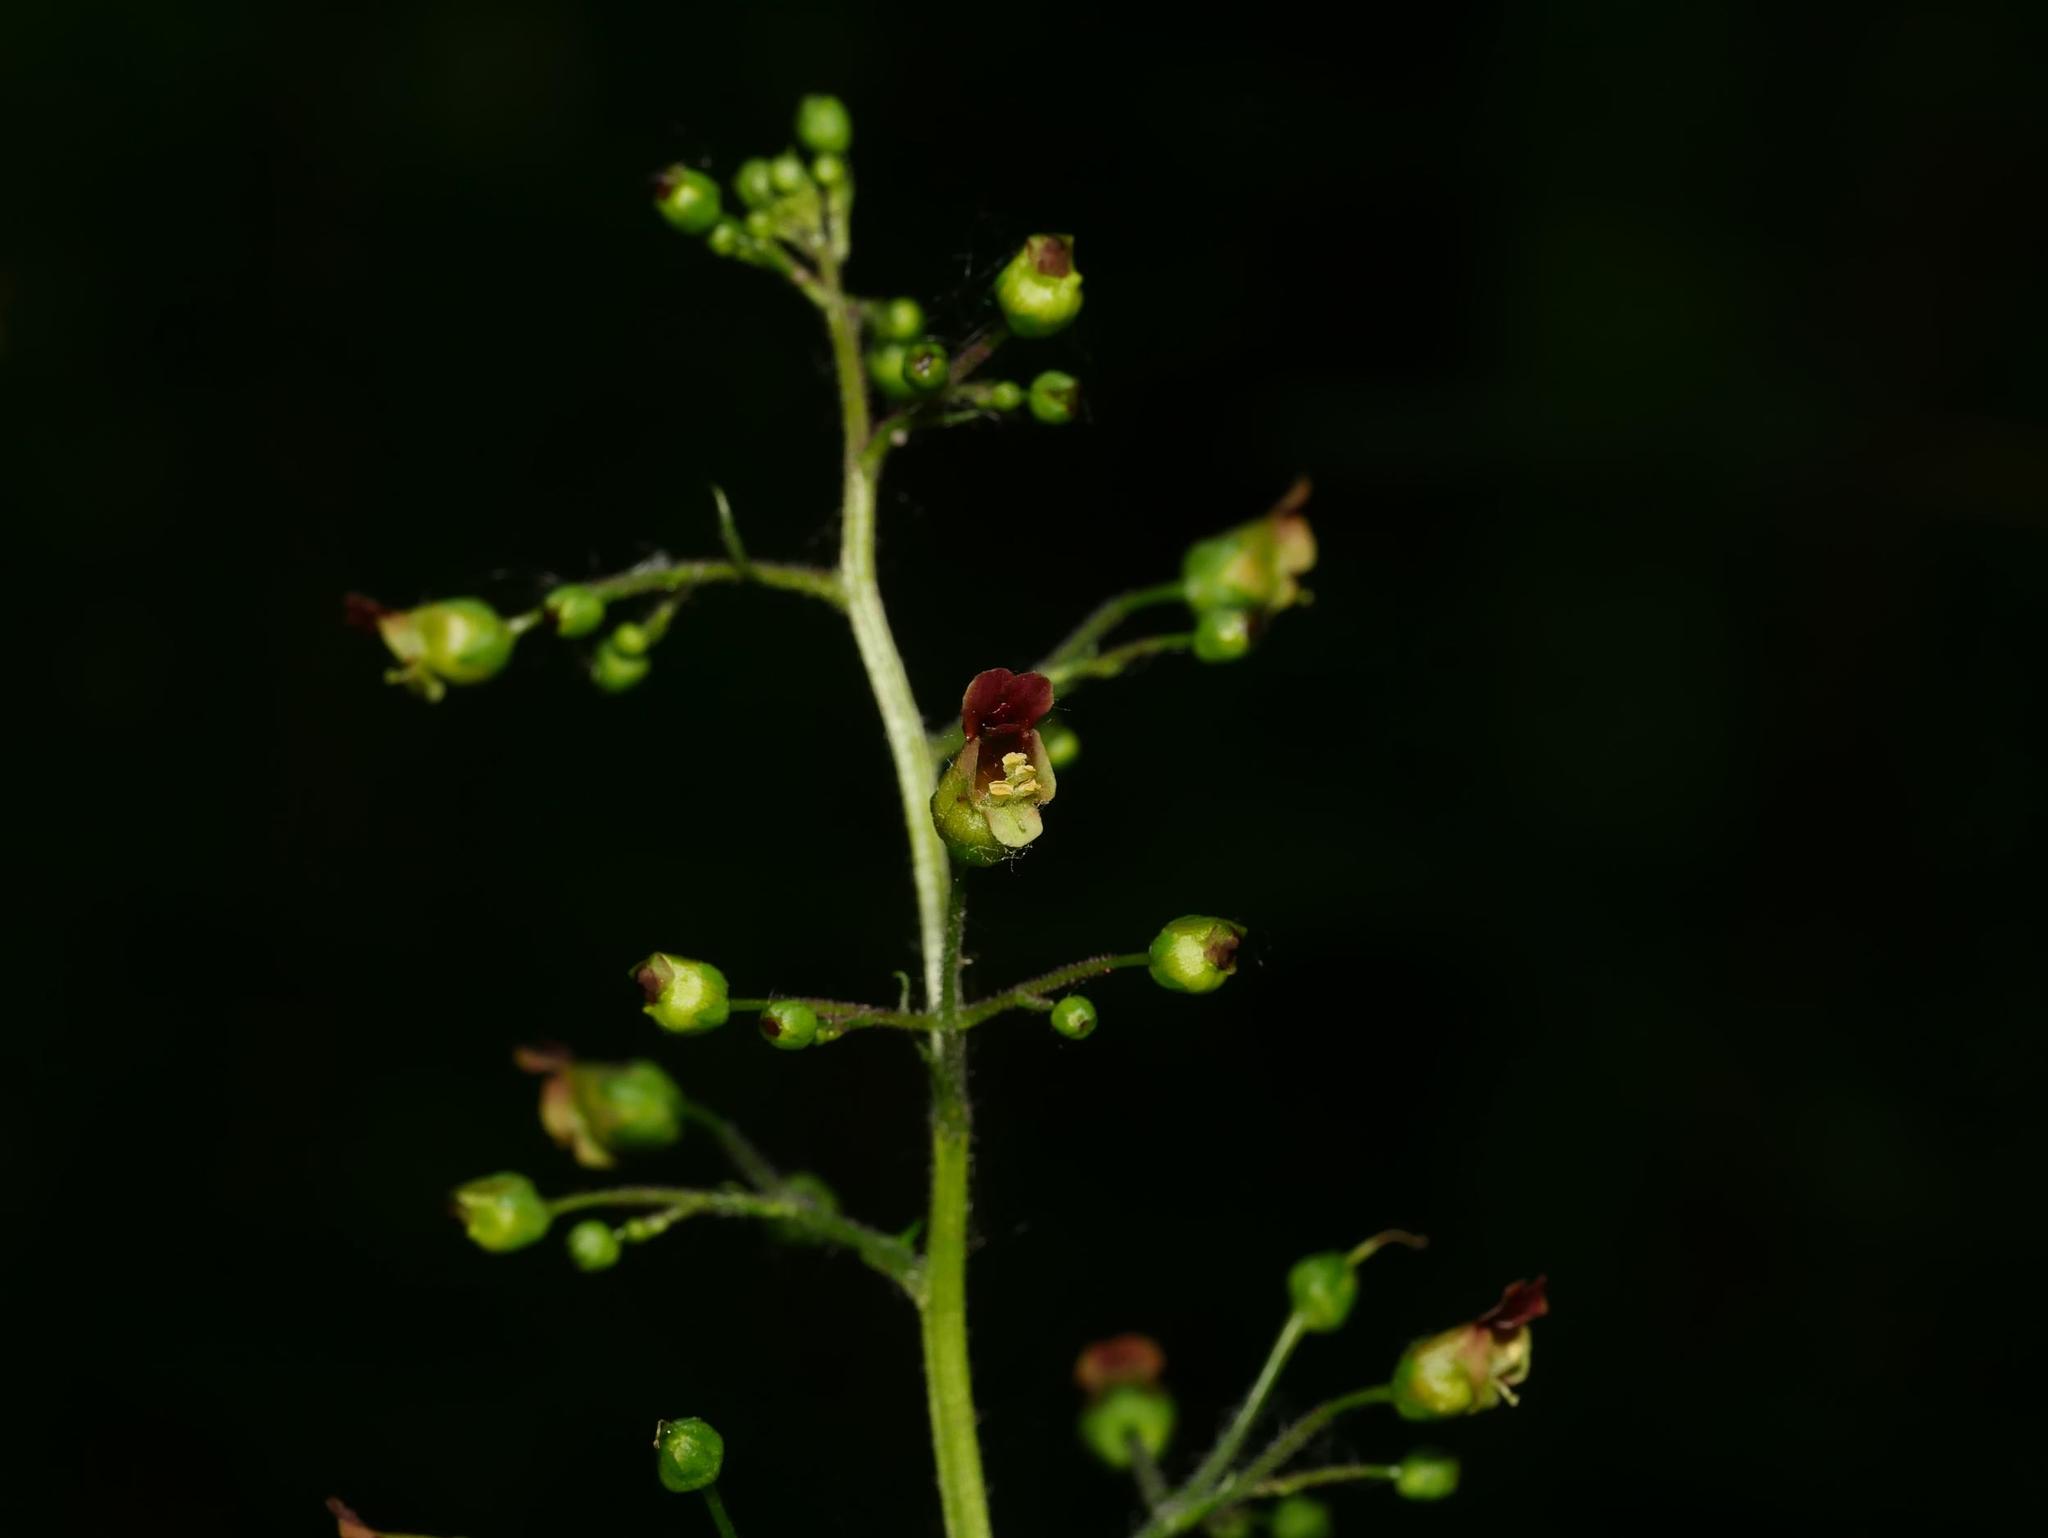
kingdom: Plantae
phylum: Tracheophyta
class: Magnoliopsida
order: Lamiales
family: Scrophulariaceae
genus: Scrophularia
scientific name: Scrophularia nodosa
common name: Common figwort
